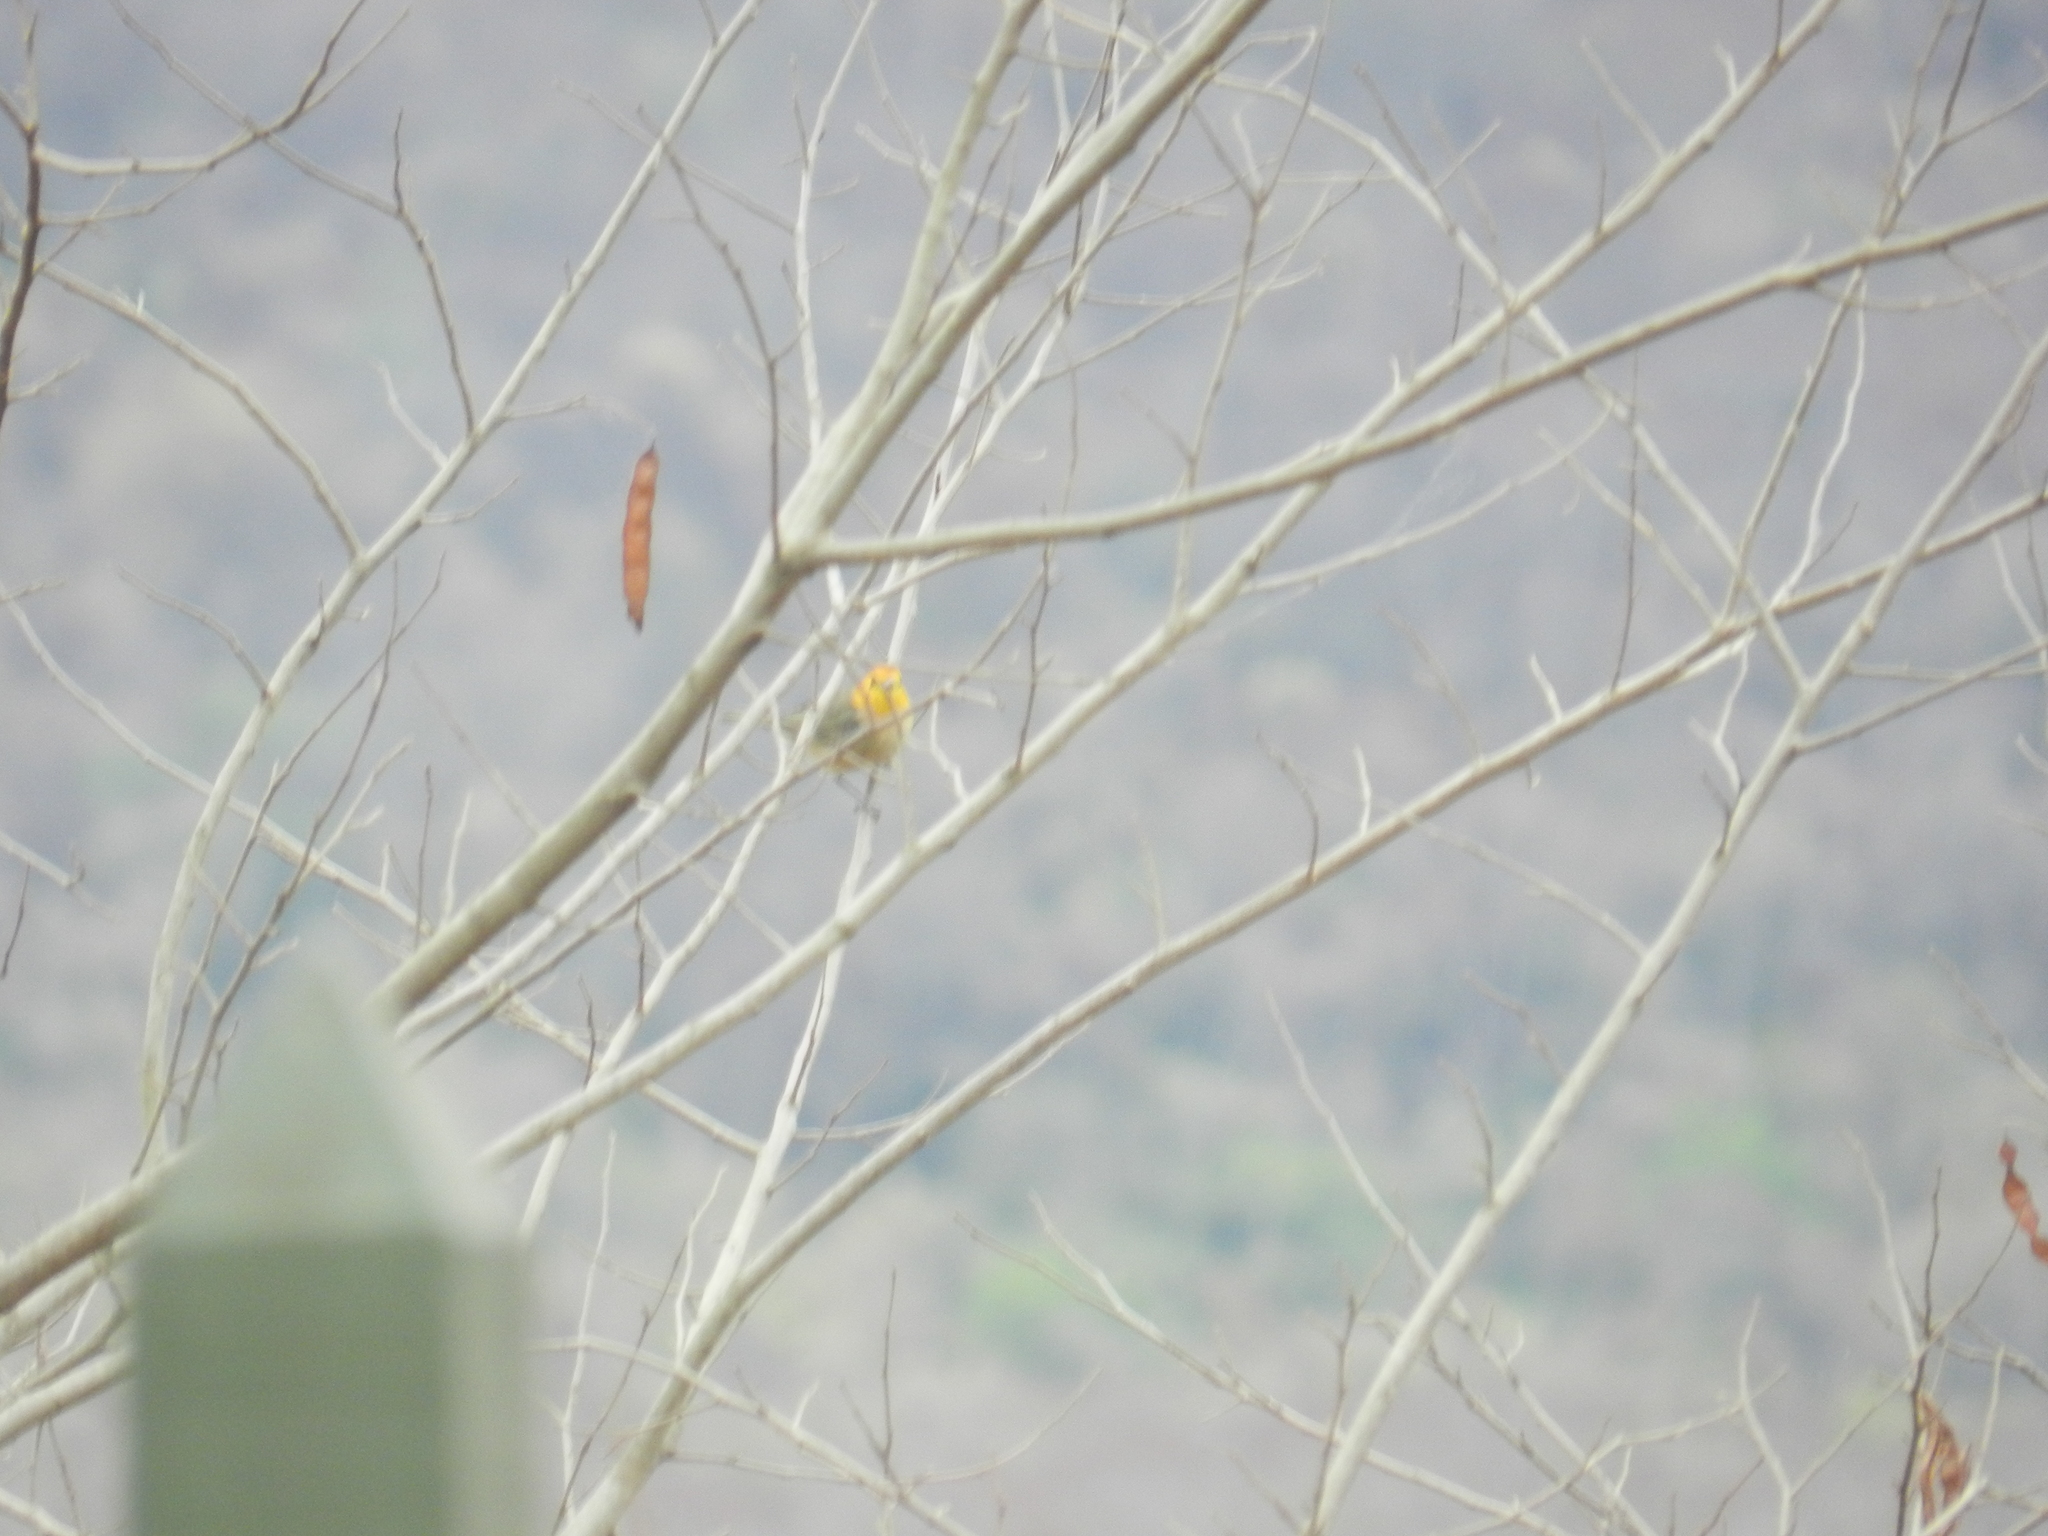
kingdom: Animalia
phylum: Chordata
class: Aves
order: Passeriformes
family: Thraupidae
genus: Thlypopsis
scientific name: Thlypopsis sordida
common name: Orange-headed tanager
